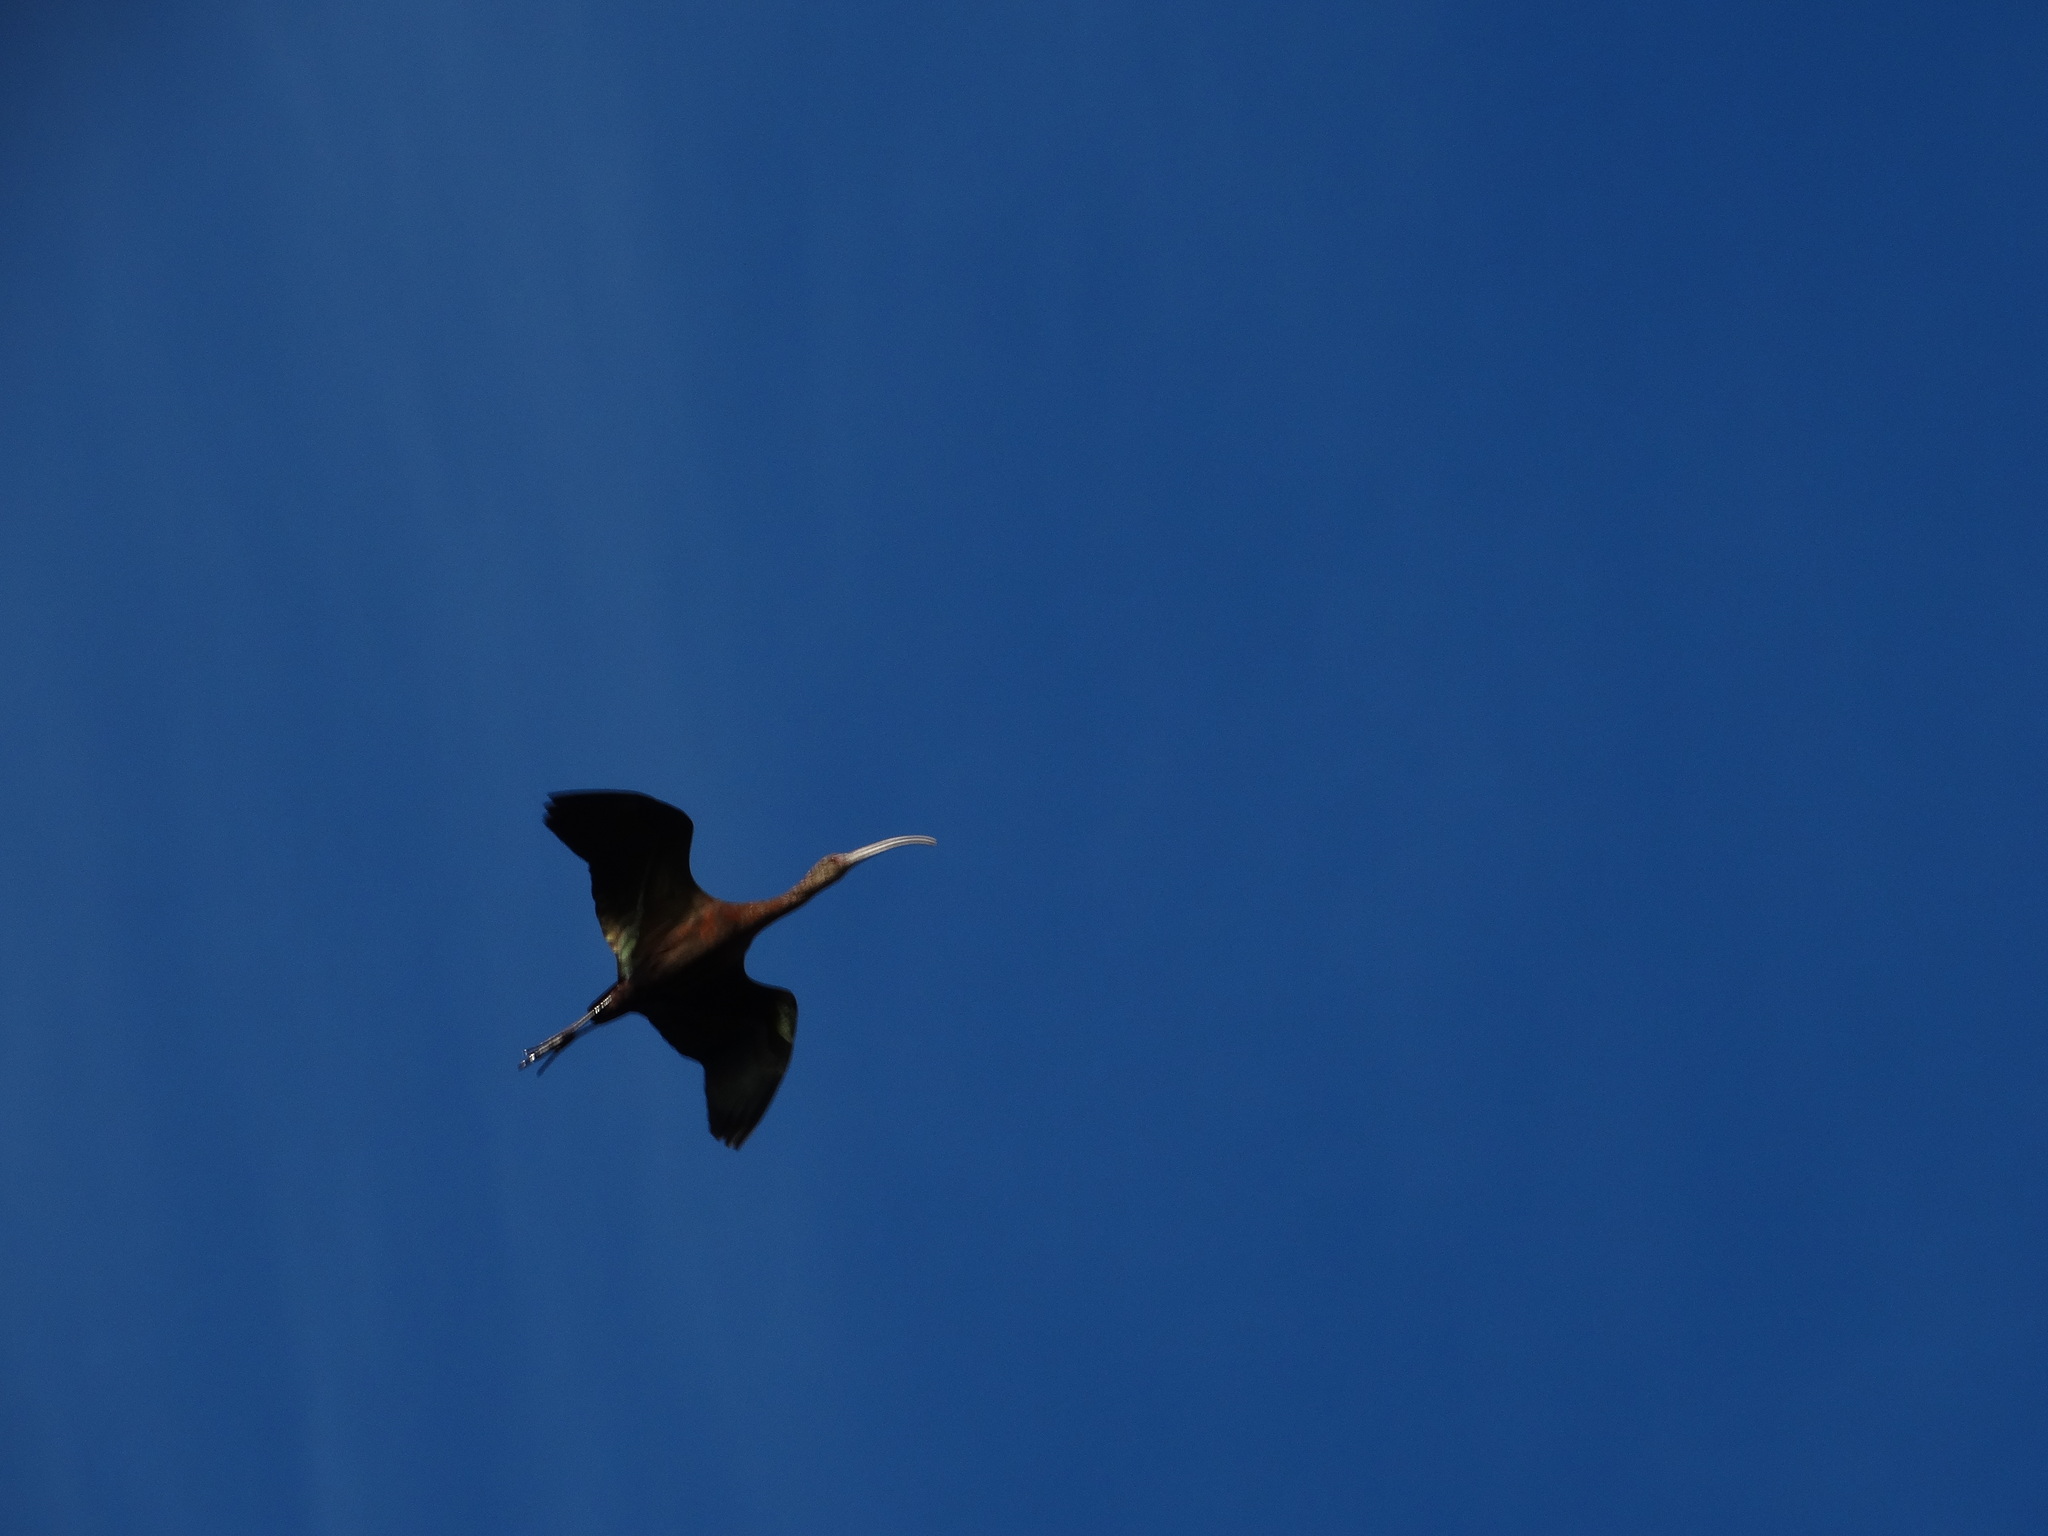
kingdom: Animalia
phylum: Chordata
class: Aves
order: Pelecaniformes
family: Threskiornithidae
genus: Plegadis
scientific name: Plegadis chihi
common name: White-faced ibis
